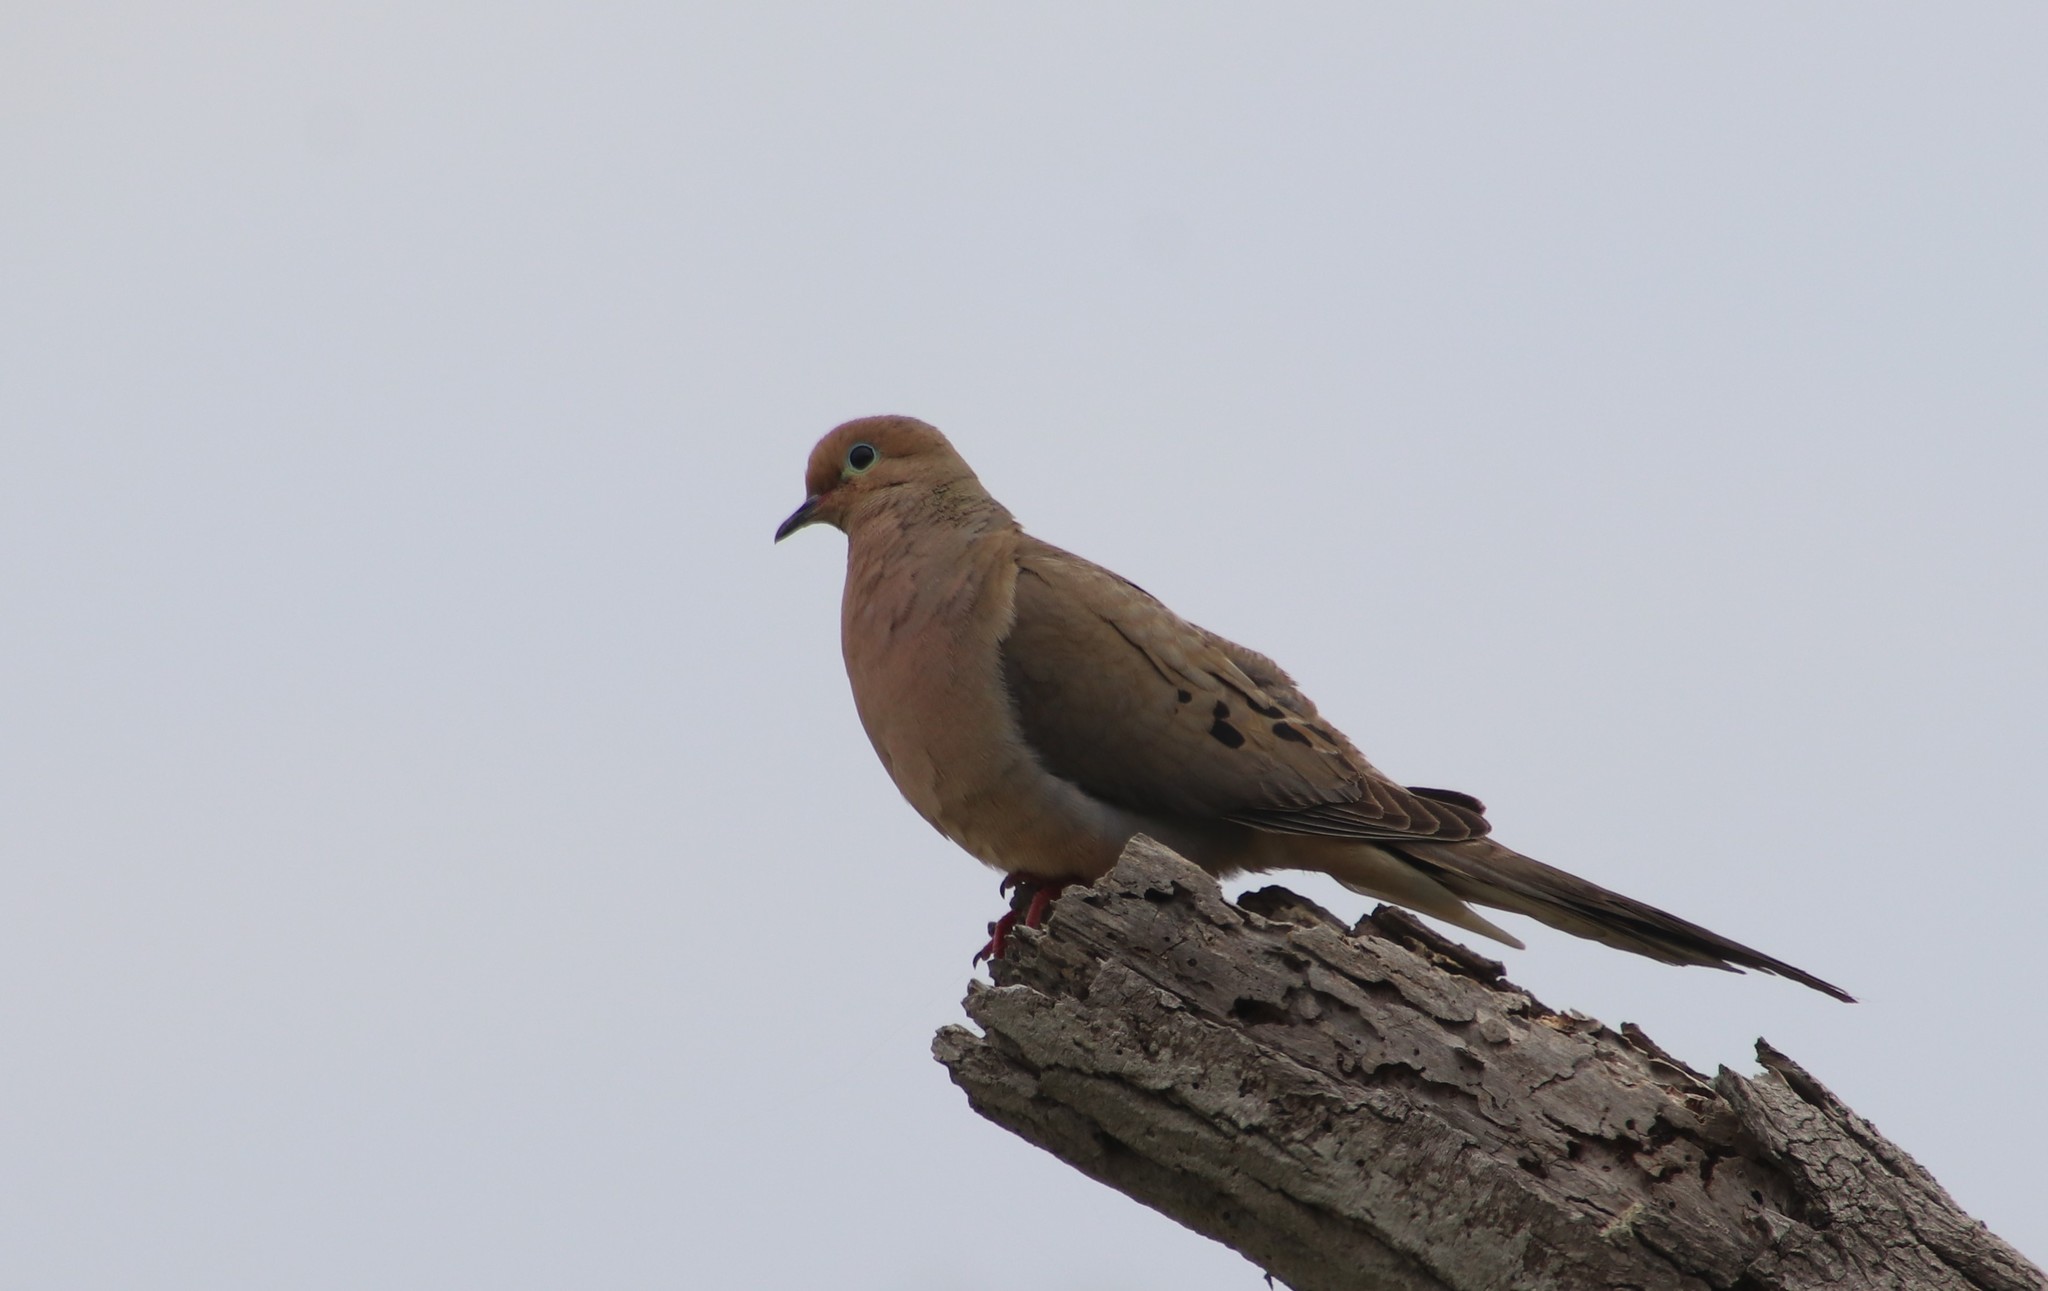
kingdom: Animalia
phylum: Chordata
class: Aves
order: Columbiformes
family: Columbidae
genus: Zenaida
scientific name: Zenaida macroura
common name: Mourning dove
